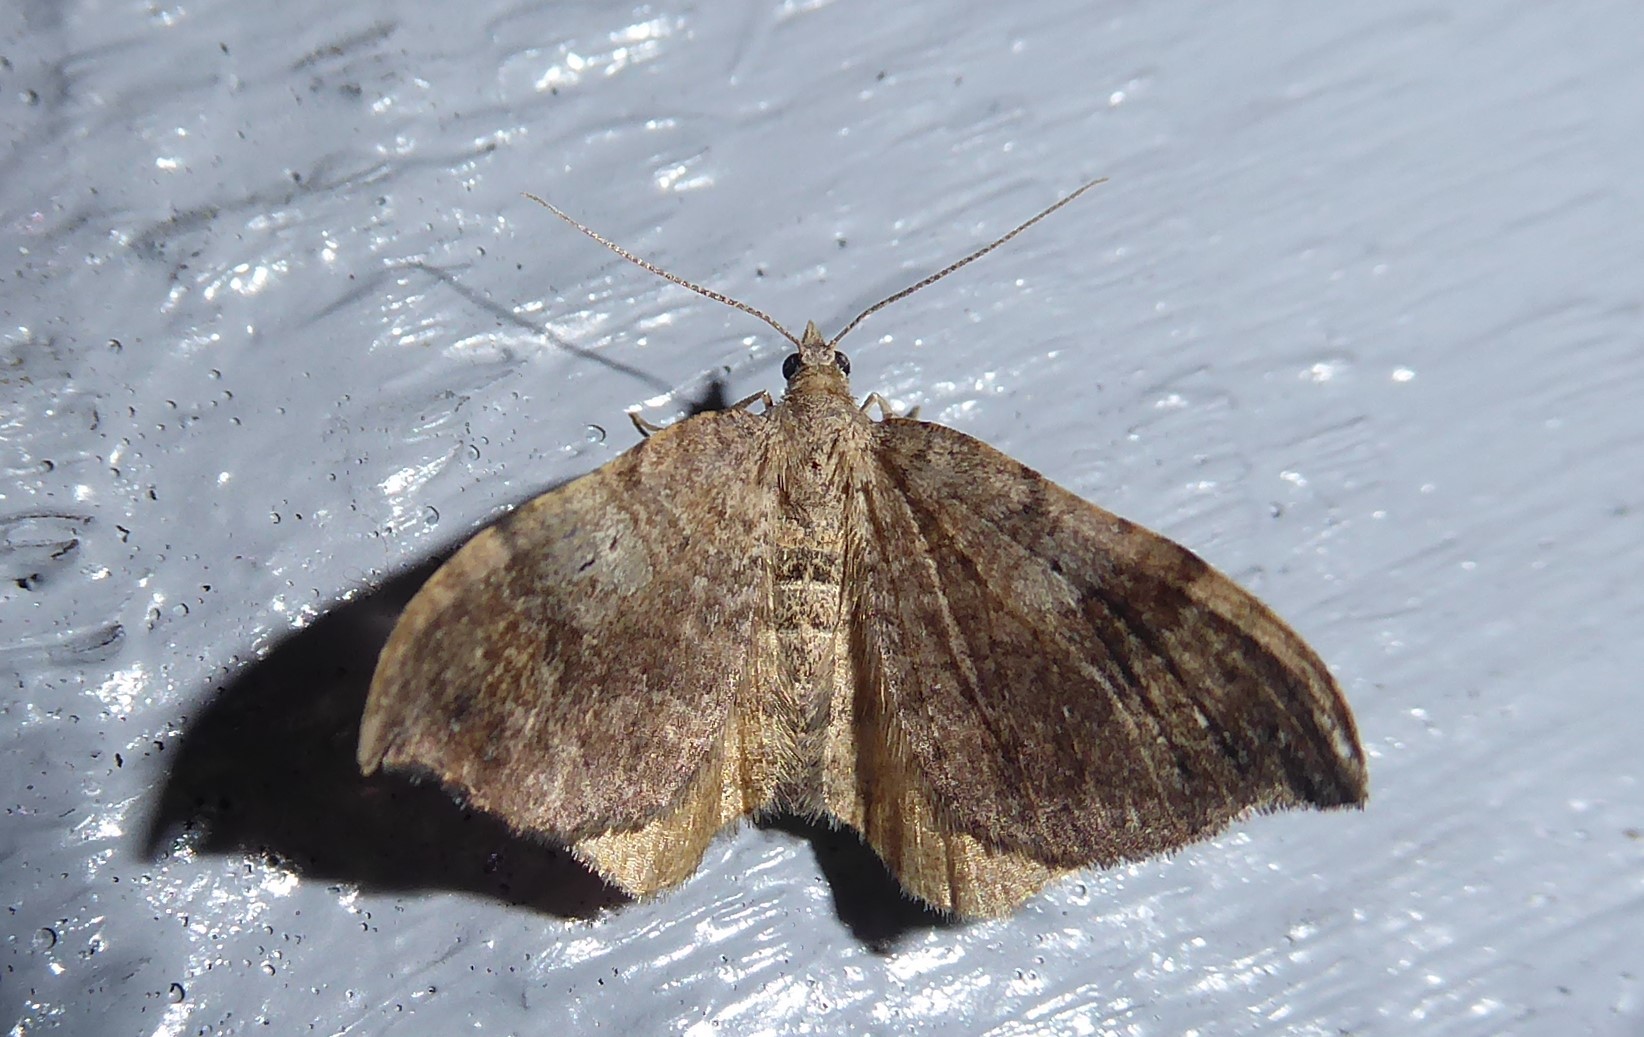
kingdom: Animalia
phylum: Arthropoda
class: Insecta
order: Lepidoptera
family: Geometridae
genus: Homodotis
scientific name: Homodotis megaspilata
